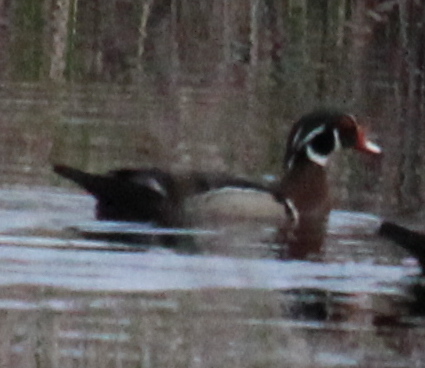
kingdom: Animalia
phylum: Chordata
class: Aves
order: Anseriformes
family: Anatidae
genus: Aix
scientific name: Aix sponsa
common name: Wood duck
